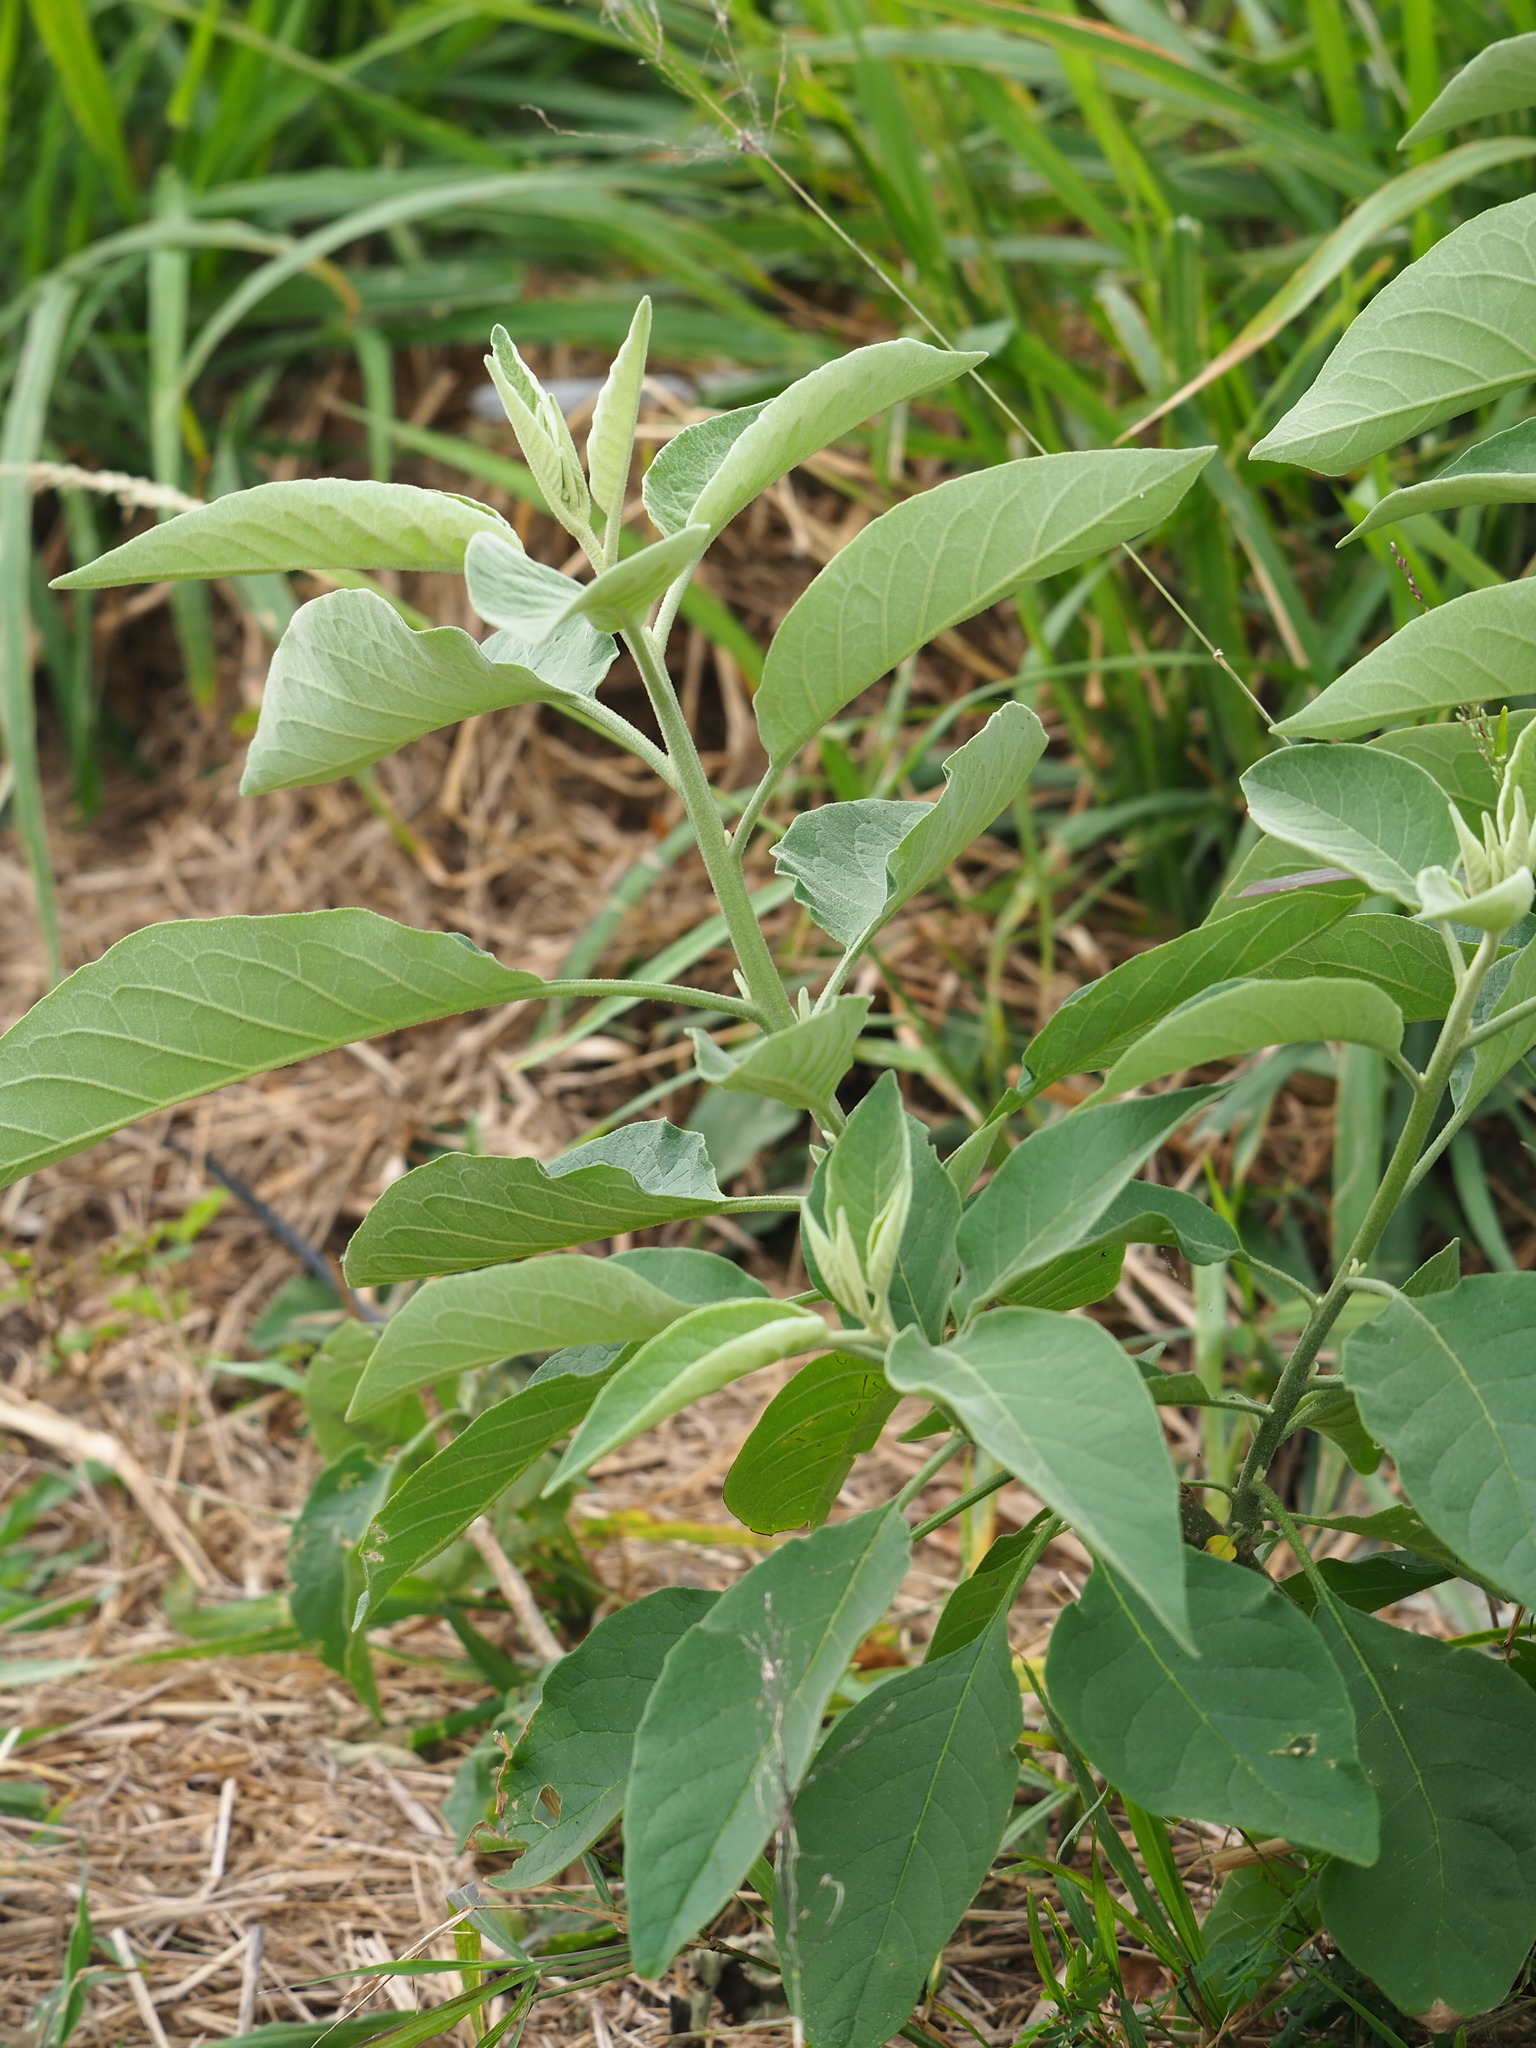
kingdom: Plantae
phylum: Tracheophyta
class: Magnoliopsida
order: Solanales
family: Solanaceae
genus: Solanum
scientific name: Solanum erianthum
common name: Tobacco-tree
